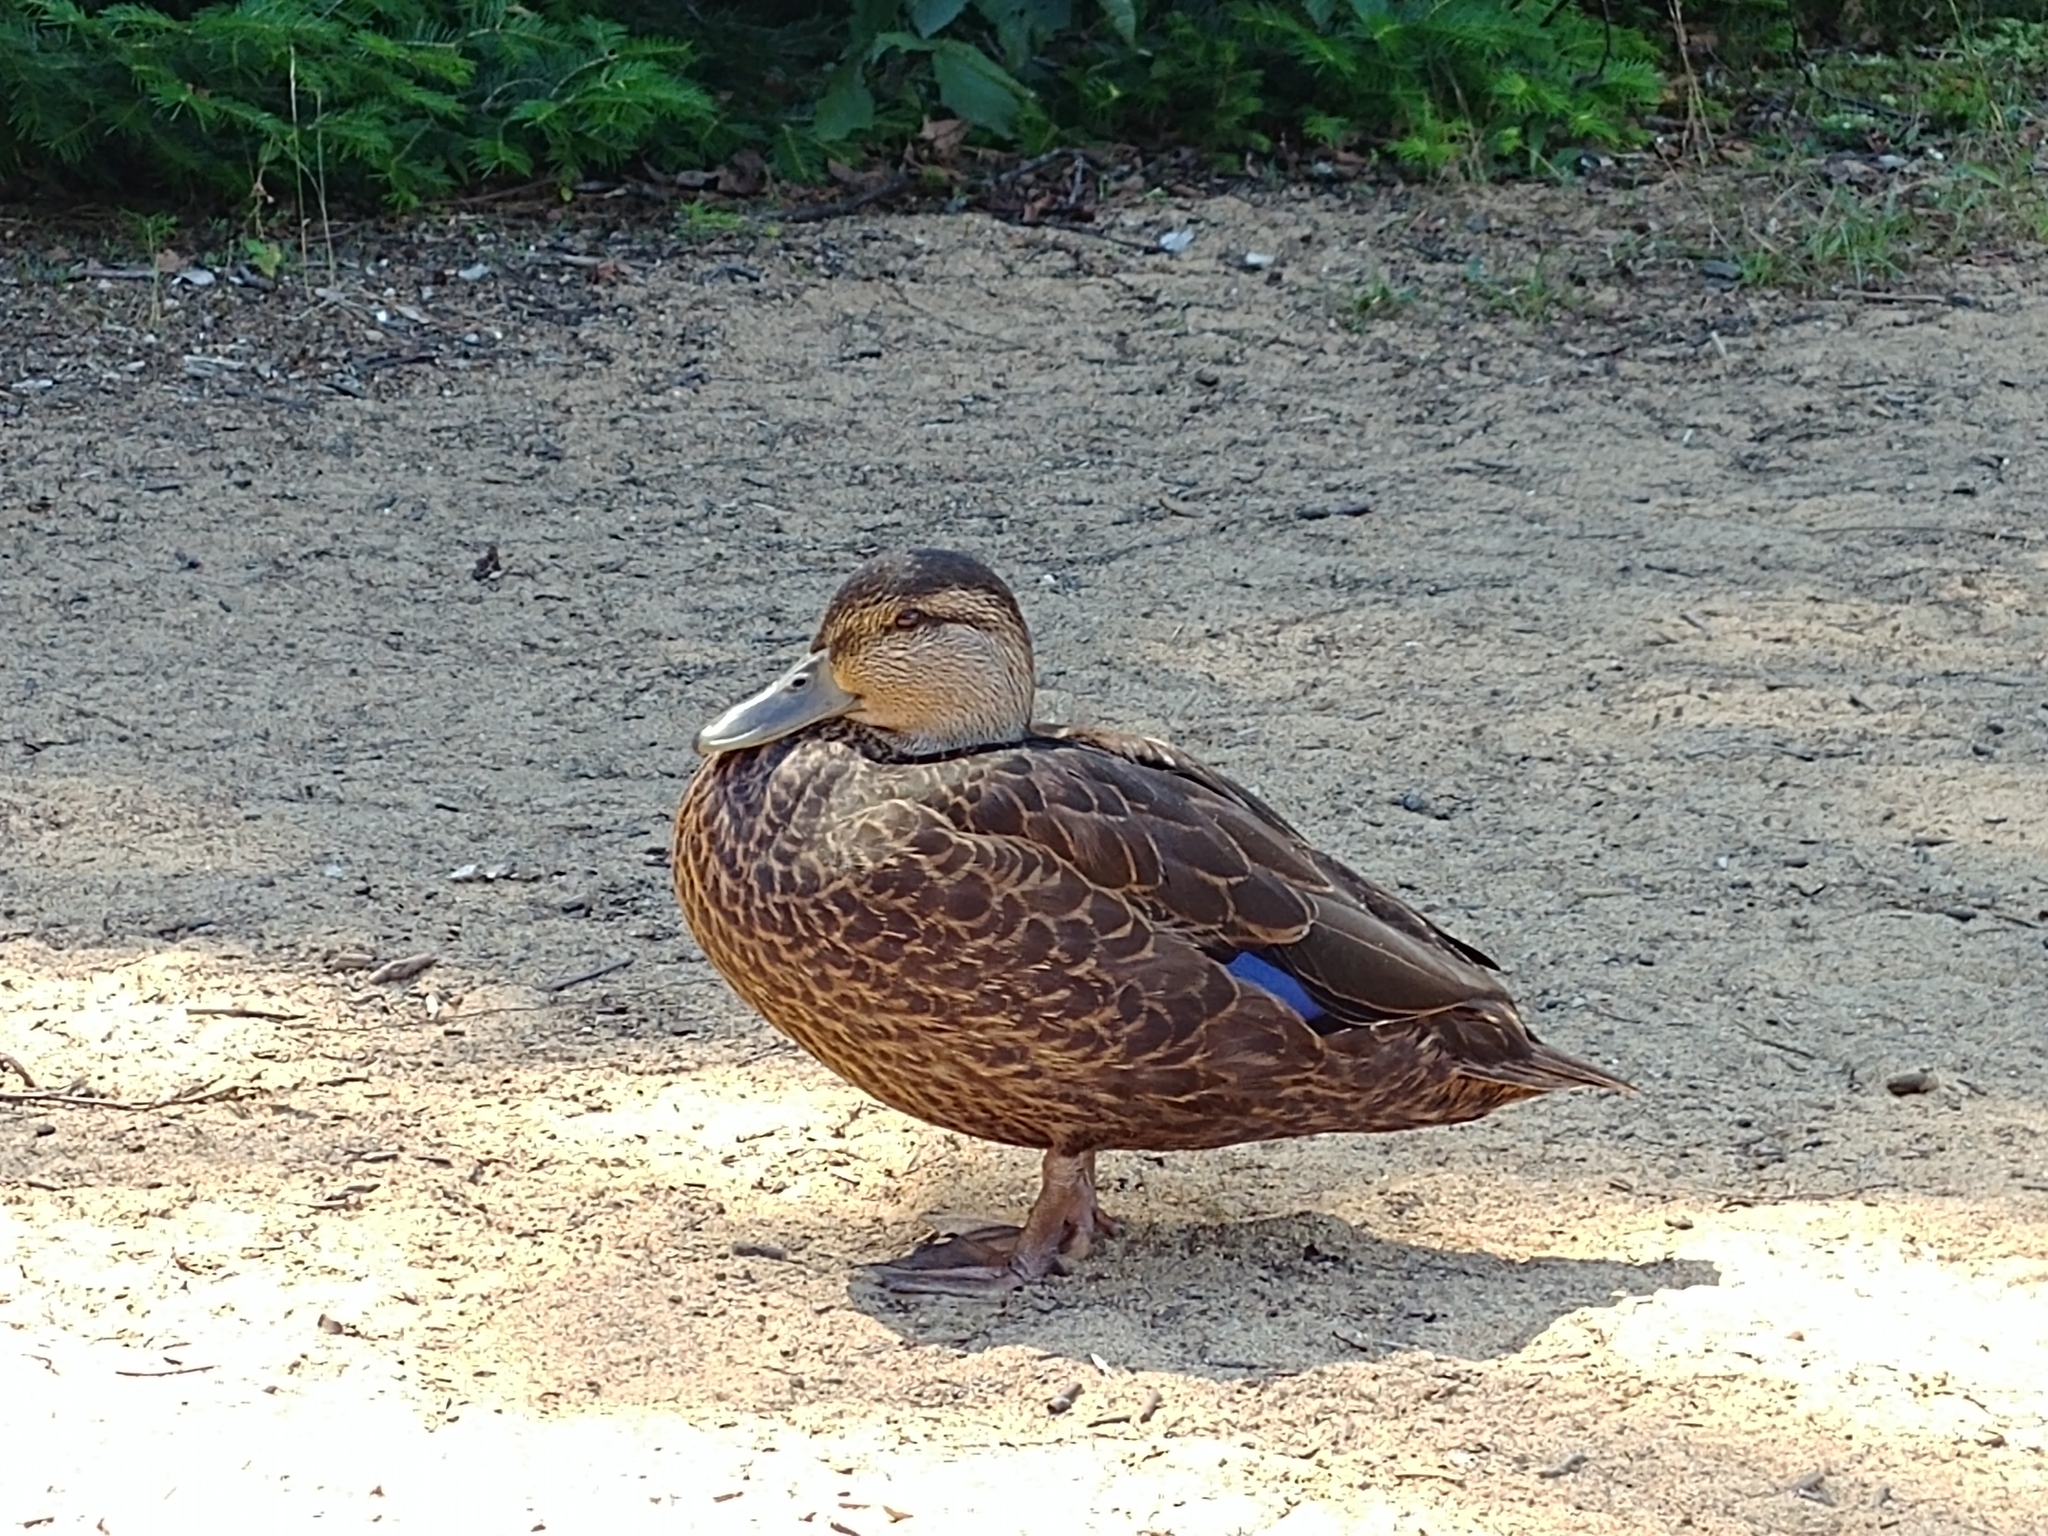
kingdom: Animalia
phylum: Chordata
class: Aves
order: Anseriformes
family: Anatidae
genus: Anas
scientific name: Anas rubripes
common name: American black duck
